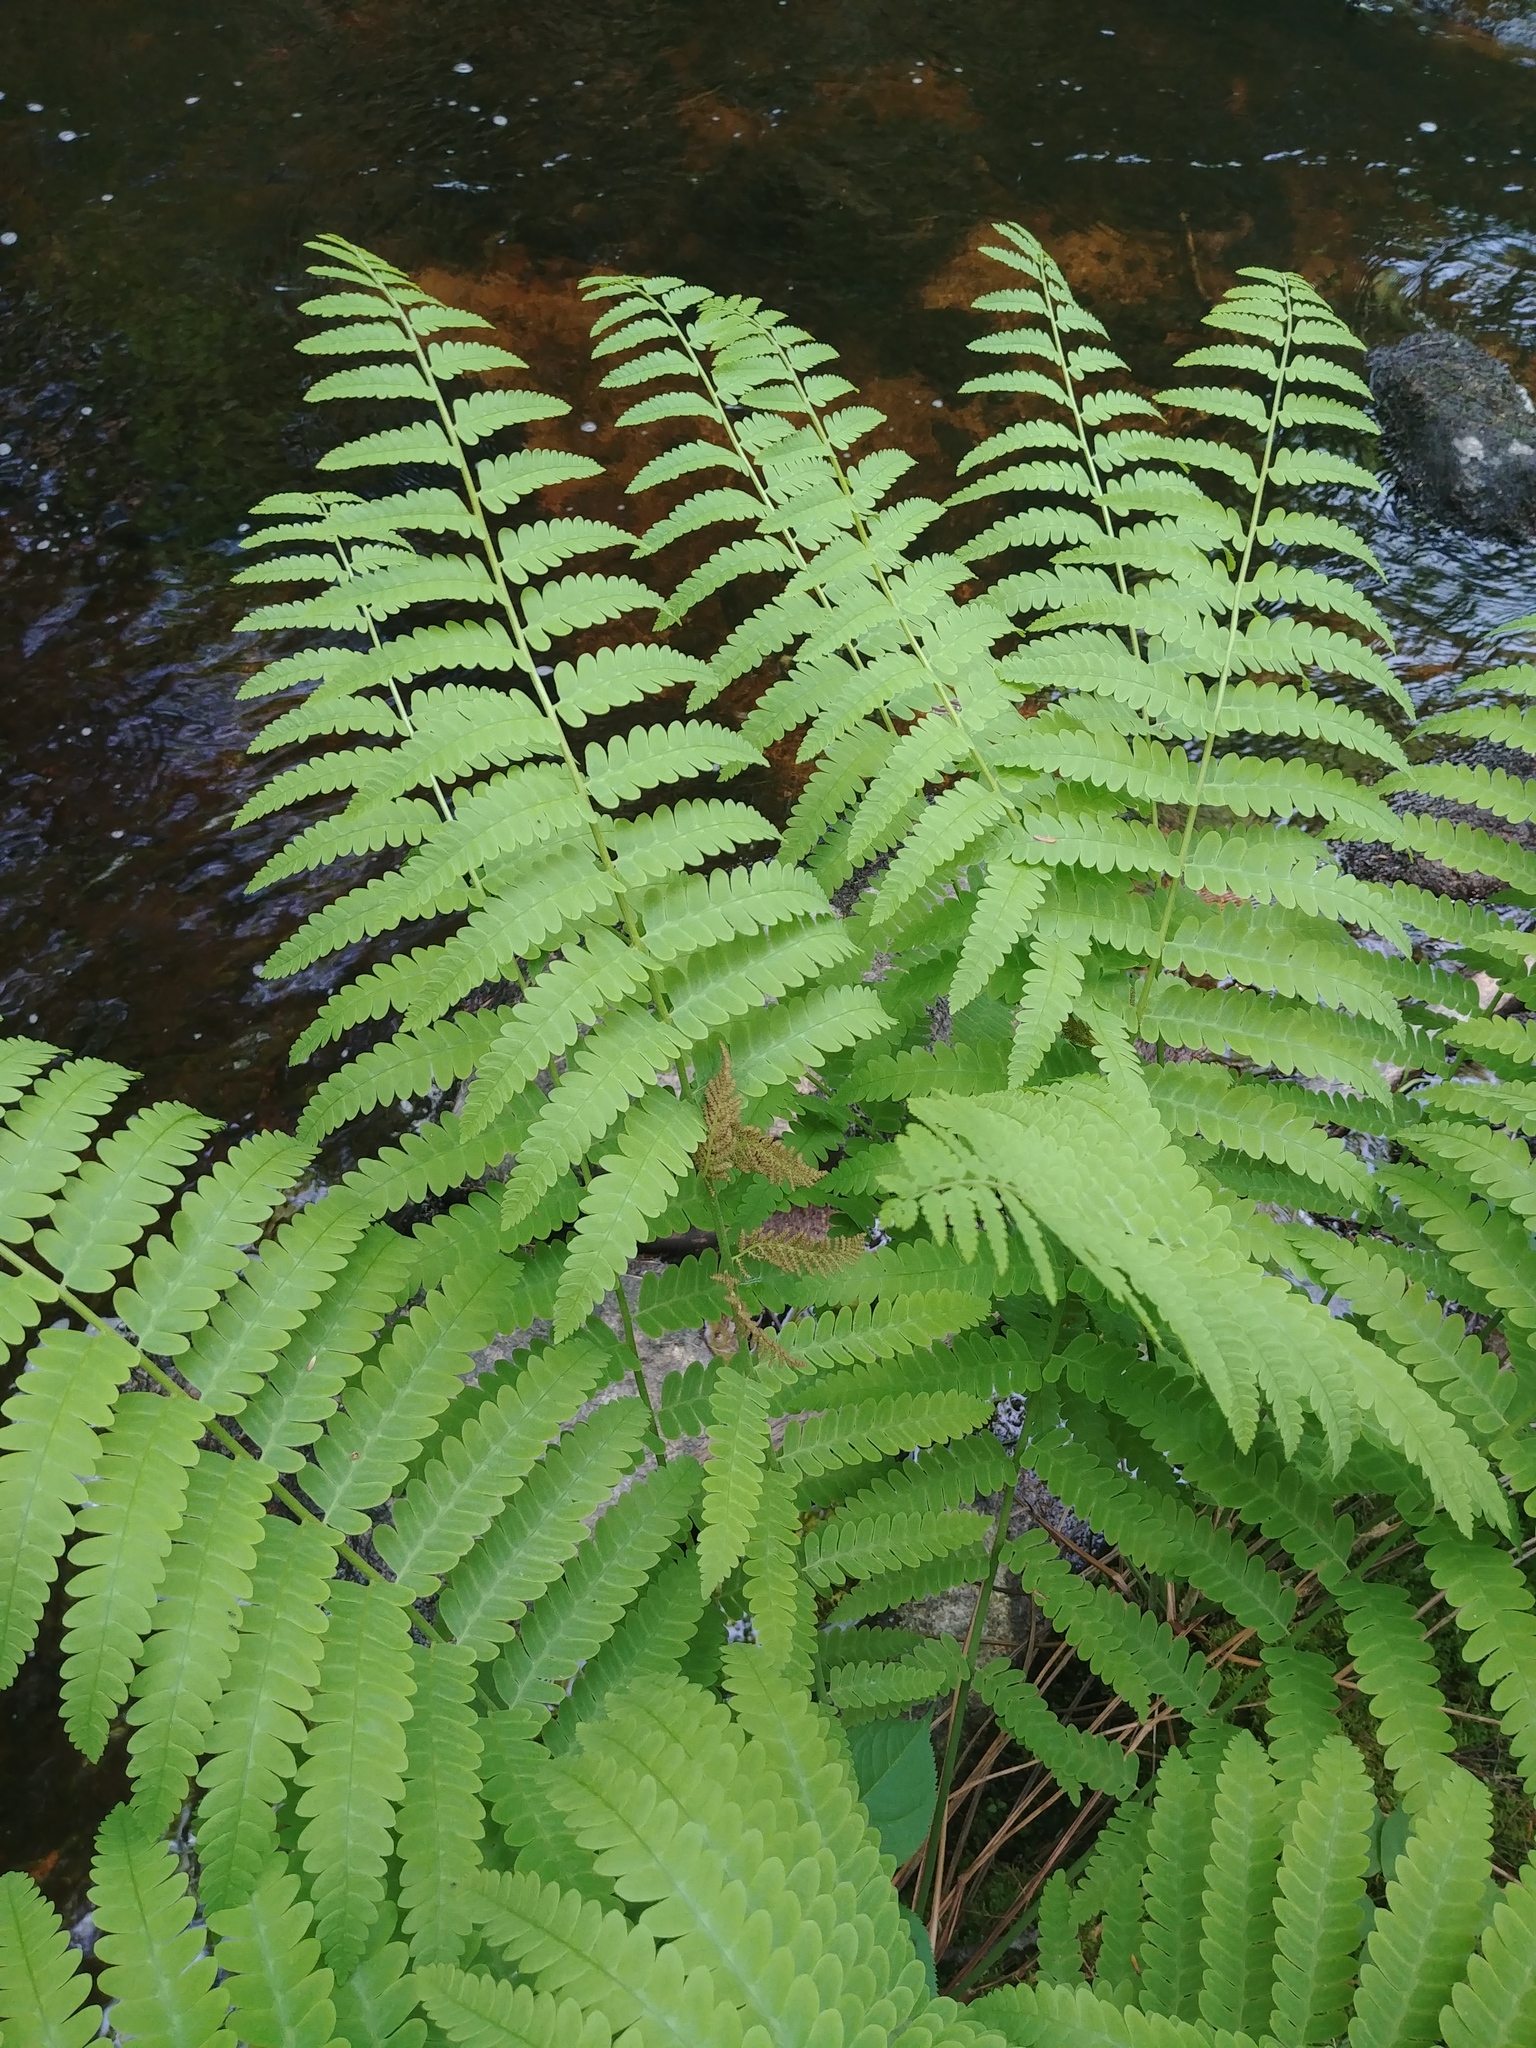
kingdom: Plantae
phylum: Tracheophyta
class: Polypodiopsida
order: Osmundales
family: Osmundaceae
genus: Claytosmunda
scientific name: Claytosmunda claytoniana
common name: Clayton's fern
